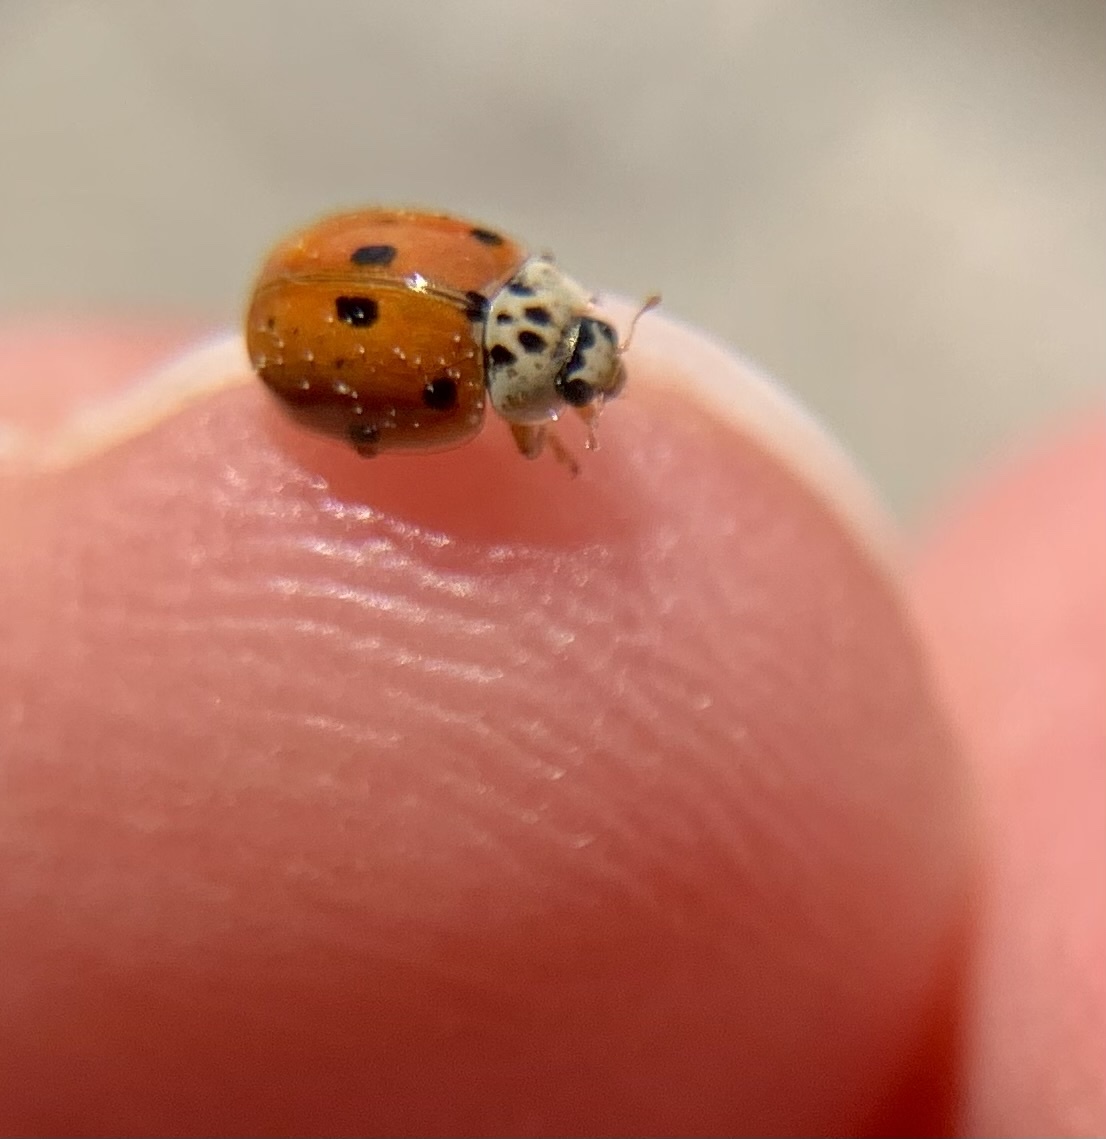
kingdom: Animalia
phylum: Arthropoda
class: Insecta
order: Coleoptera
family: Coccinellidae
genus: Adalia
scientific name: Adalia decempunctata
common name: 10-spot ladybird
